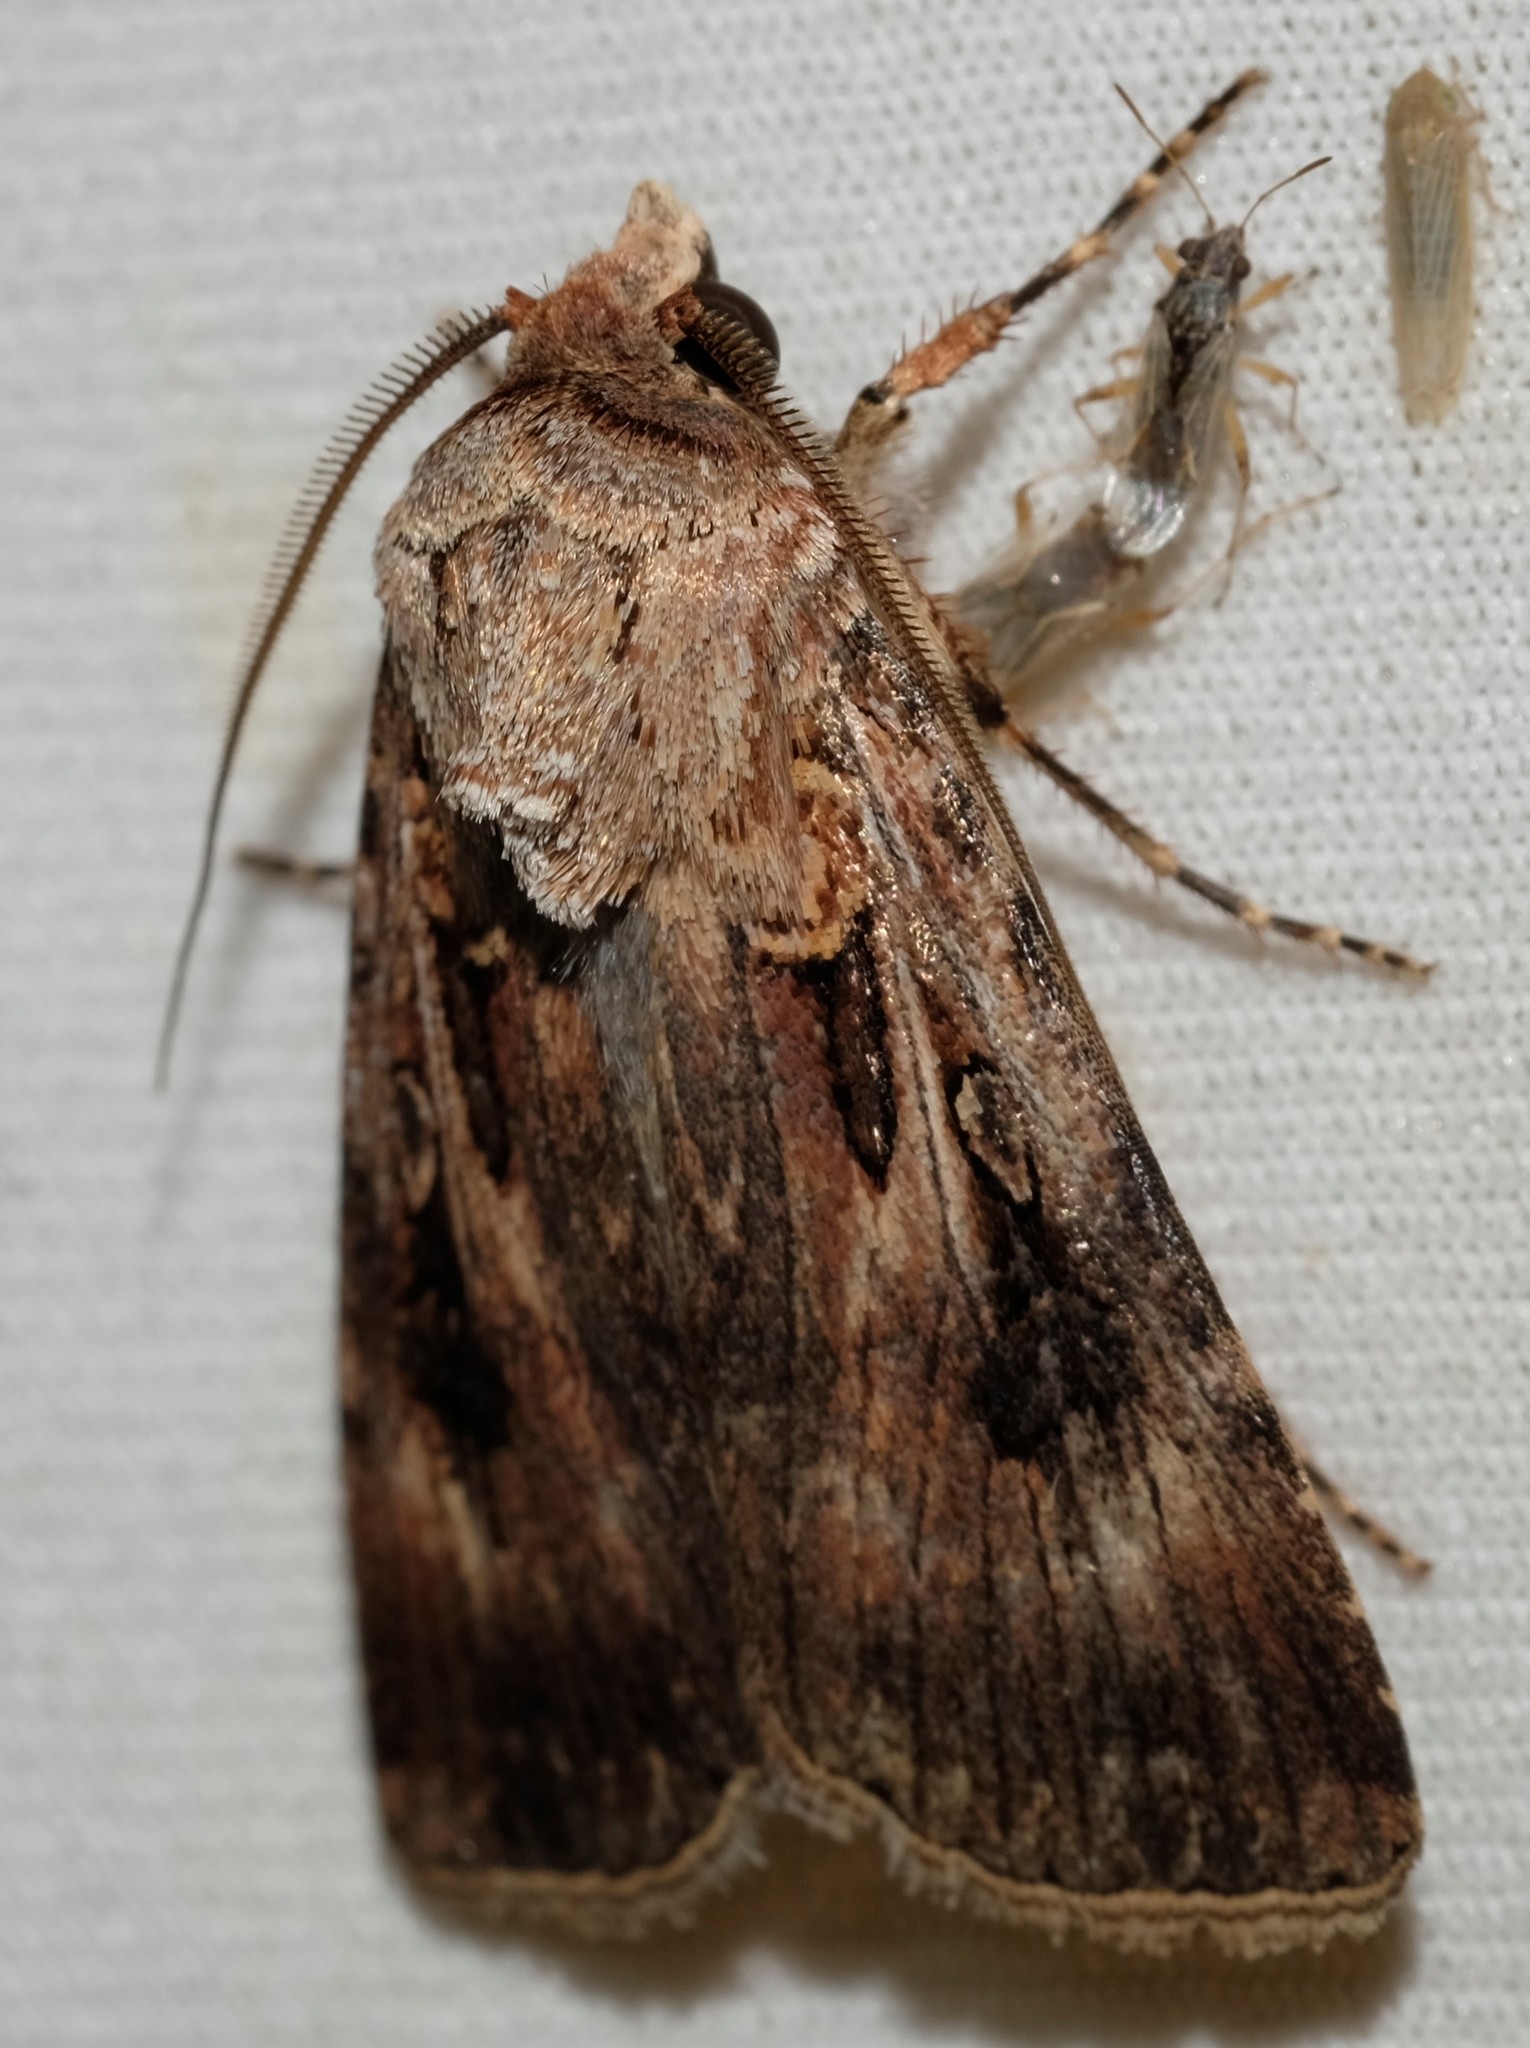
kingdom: Animalia
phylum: Arthropoda
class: Insecta
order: Lepidoptera
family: Noctuidae
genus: Agrotis
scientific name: Agrotis munda
